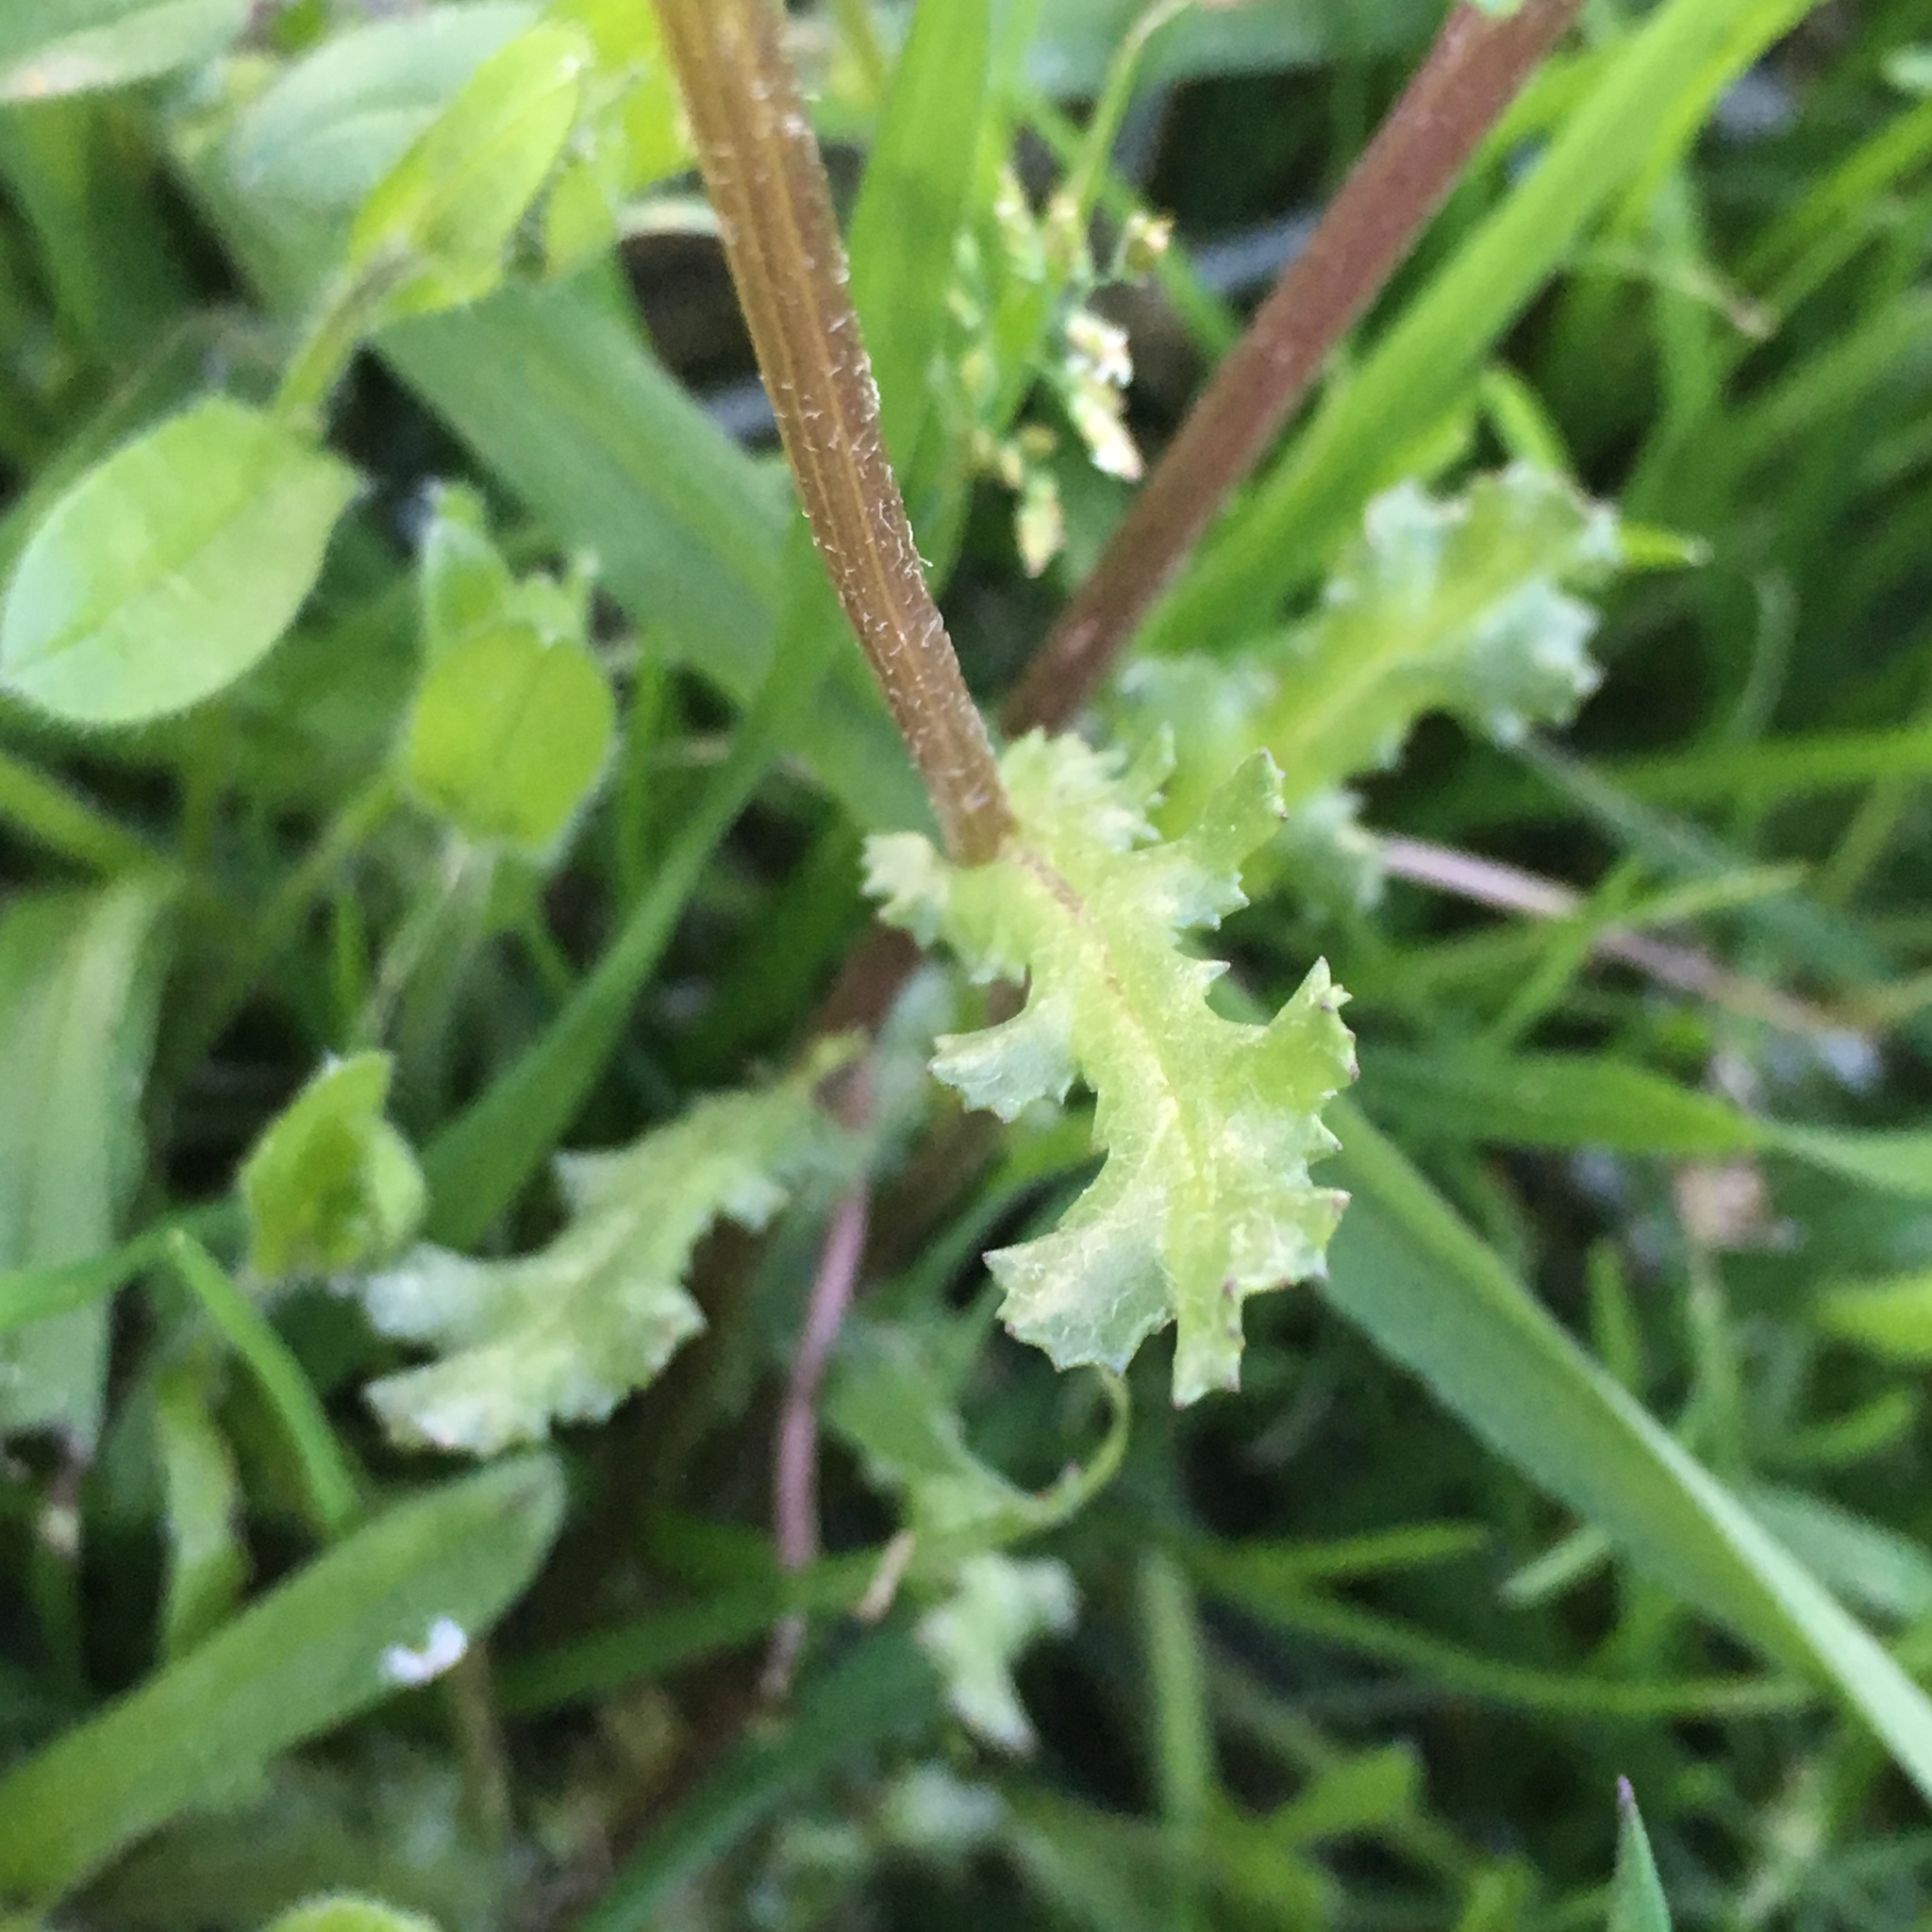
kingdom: Plantae
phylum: Tracheophyta
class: Magnoliopsida
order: Asterales
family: Asteraceae
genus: Senecio
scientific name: Senecio vulgaris
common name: Old-man-in-the-spring
